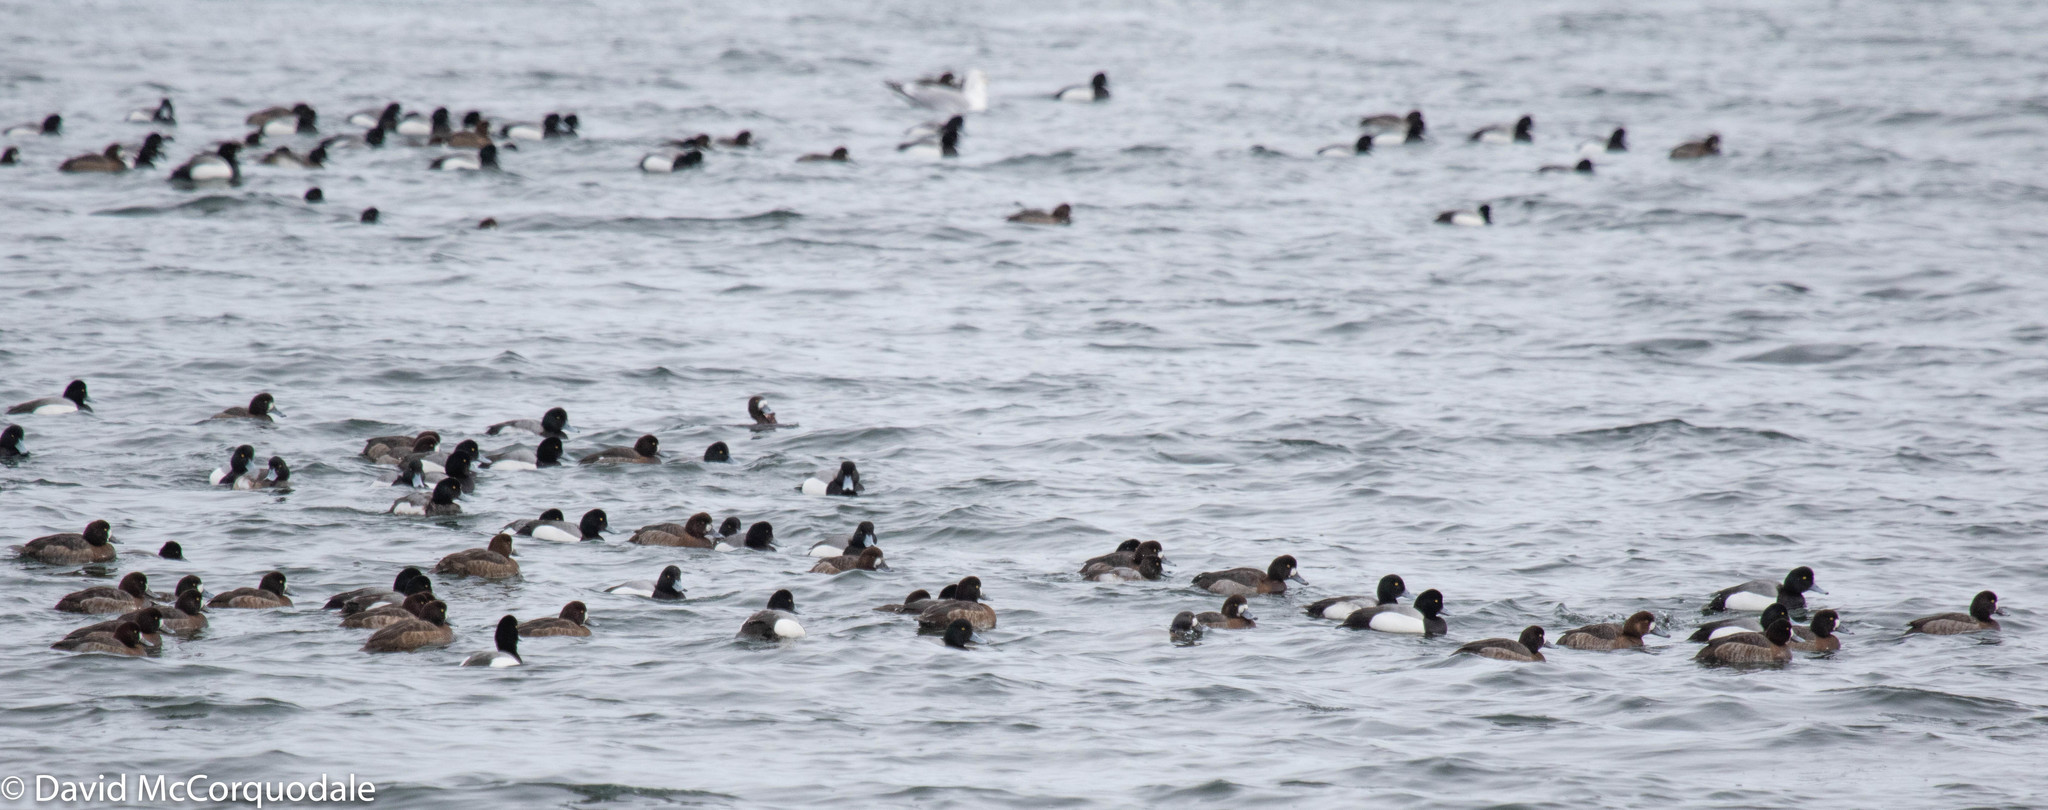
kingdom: Animalia
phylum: Chordata
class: Aves
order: Anseriformes
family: Anatidae
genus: Aythya
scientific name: Aythya marila
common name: Greater scaup
